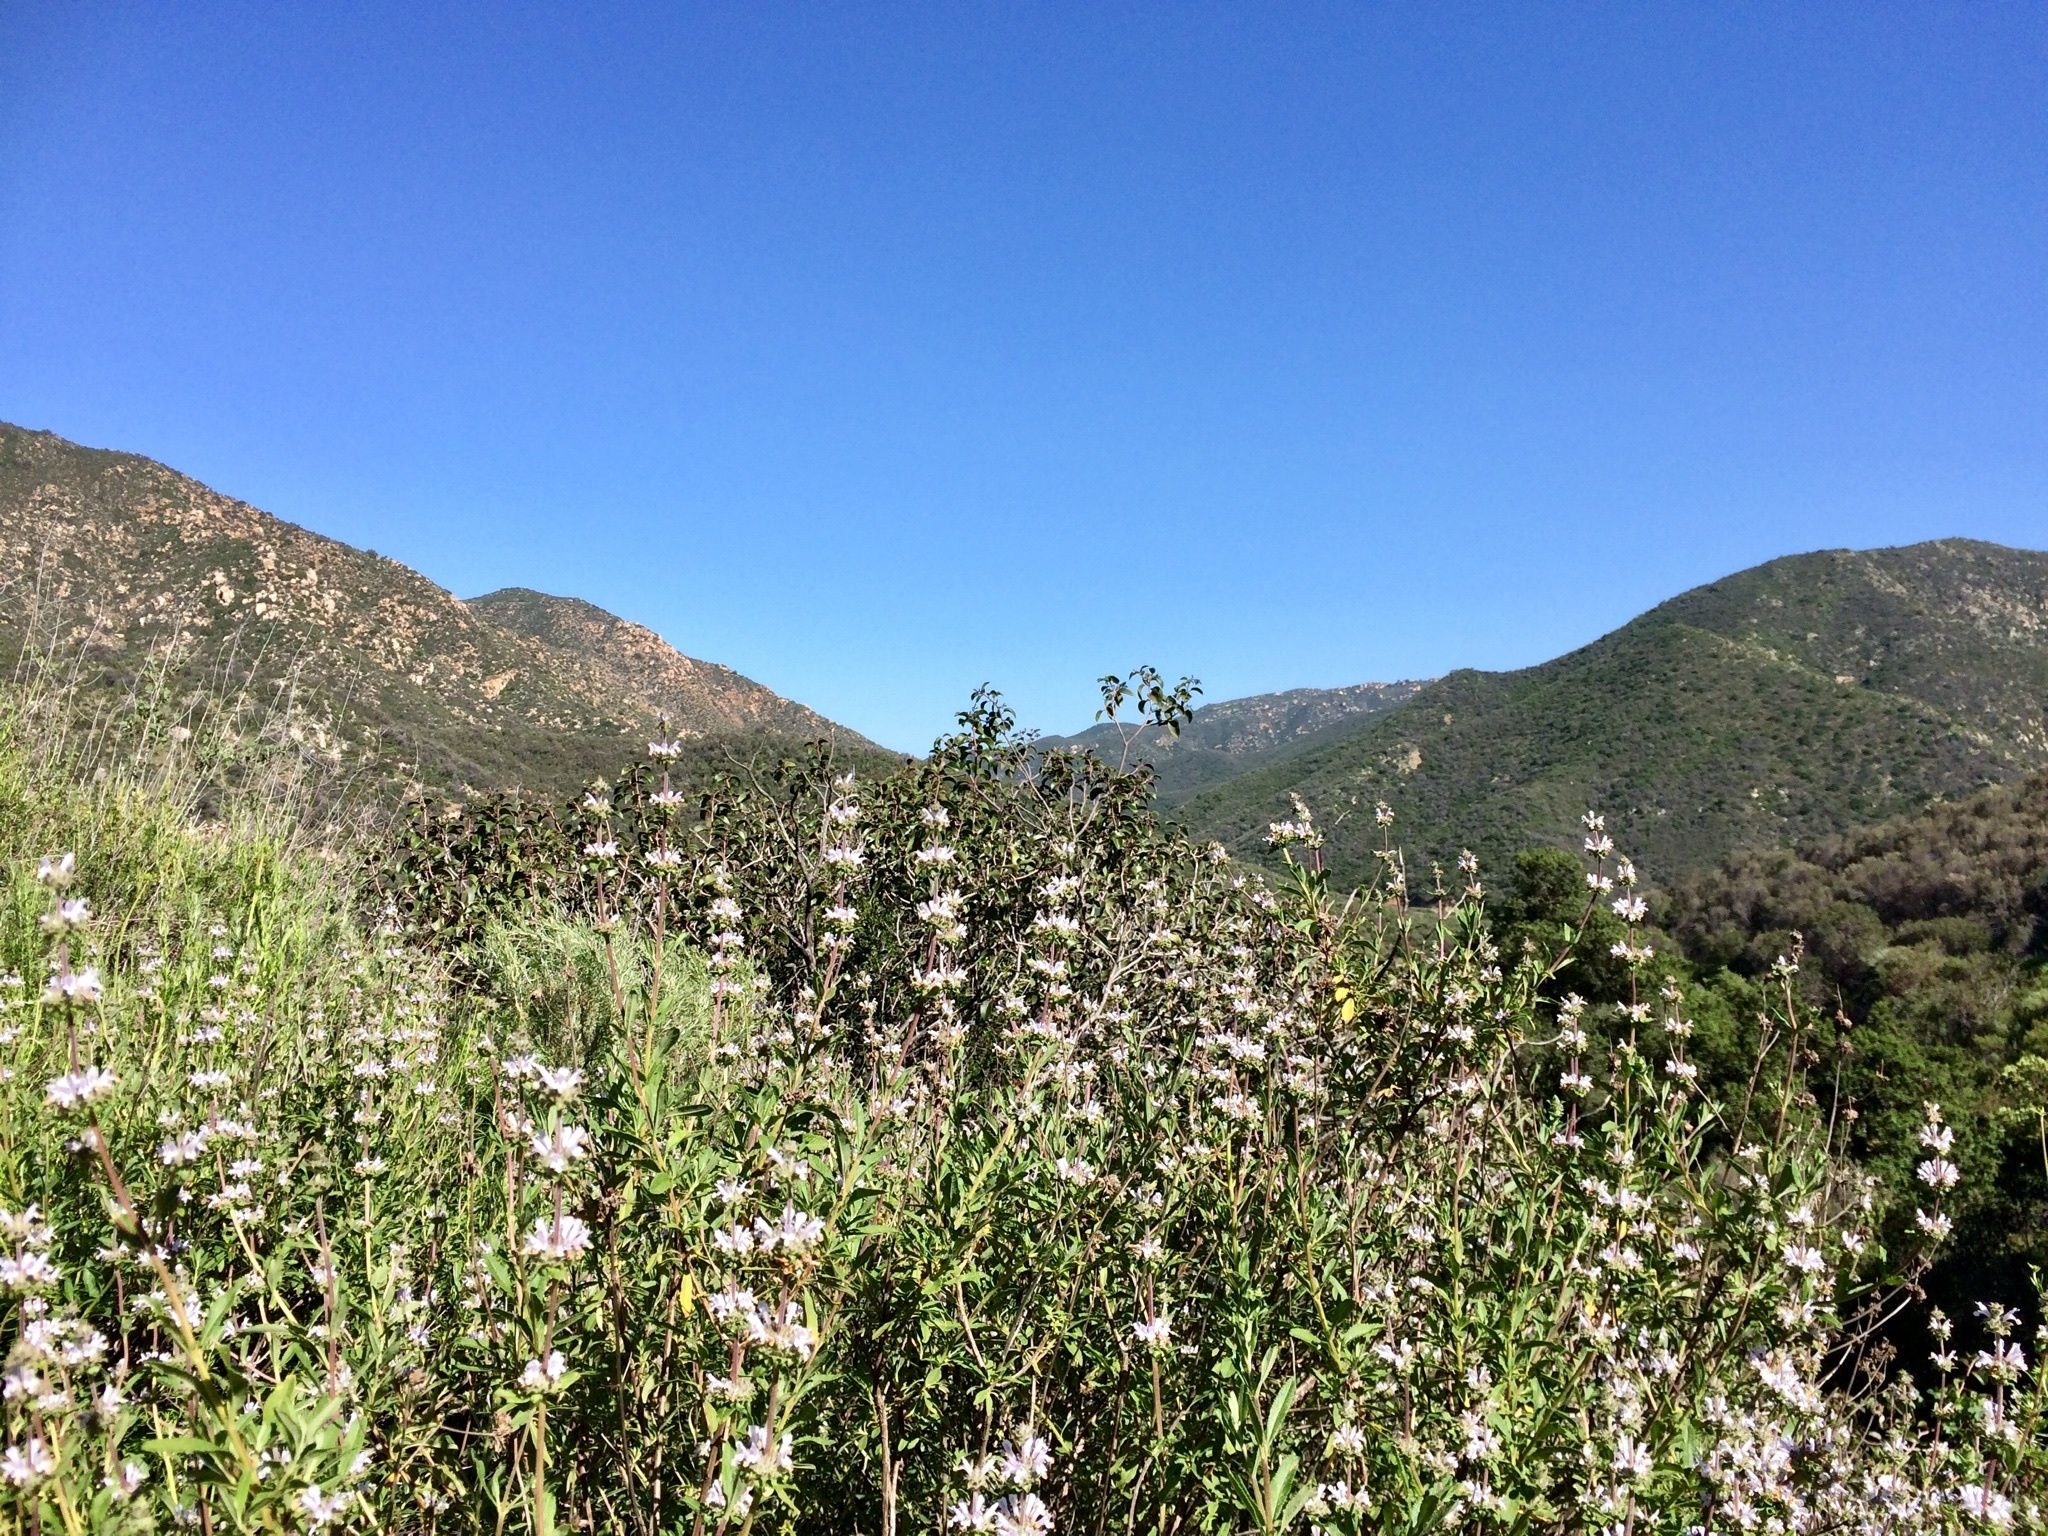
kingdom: Plantae
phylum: Tracheophyta
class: Magnoliopsida
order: Lamiales
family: Lamiaceae
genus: Salvia
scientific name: Salvia mellifera
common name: Black sage
